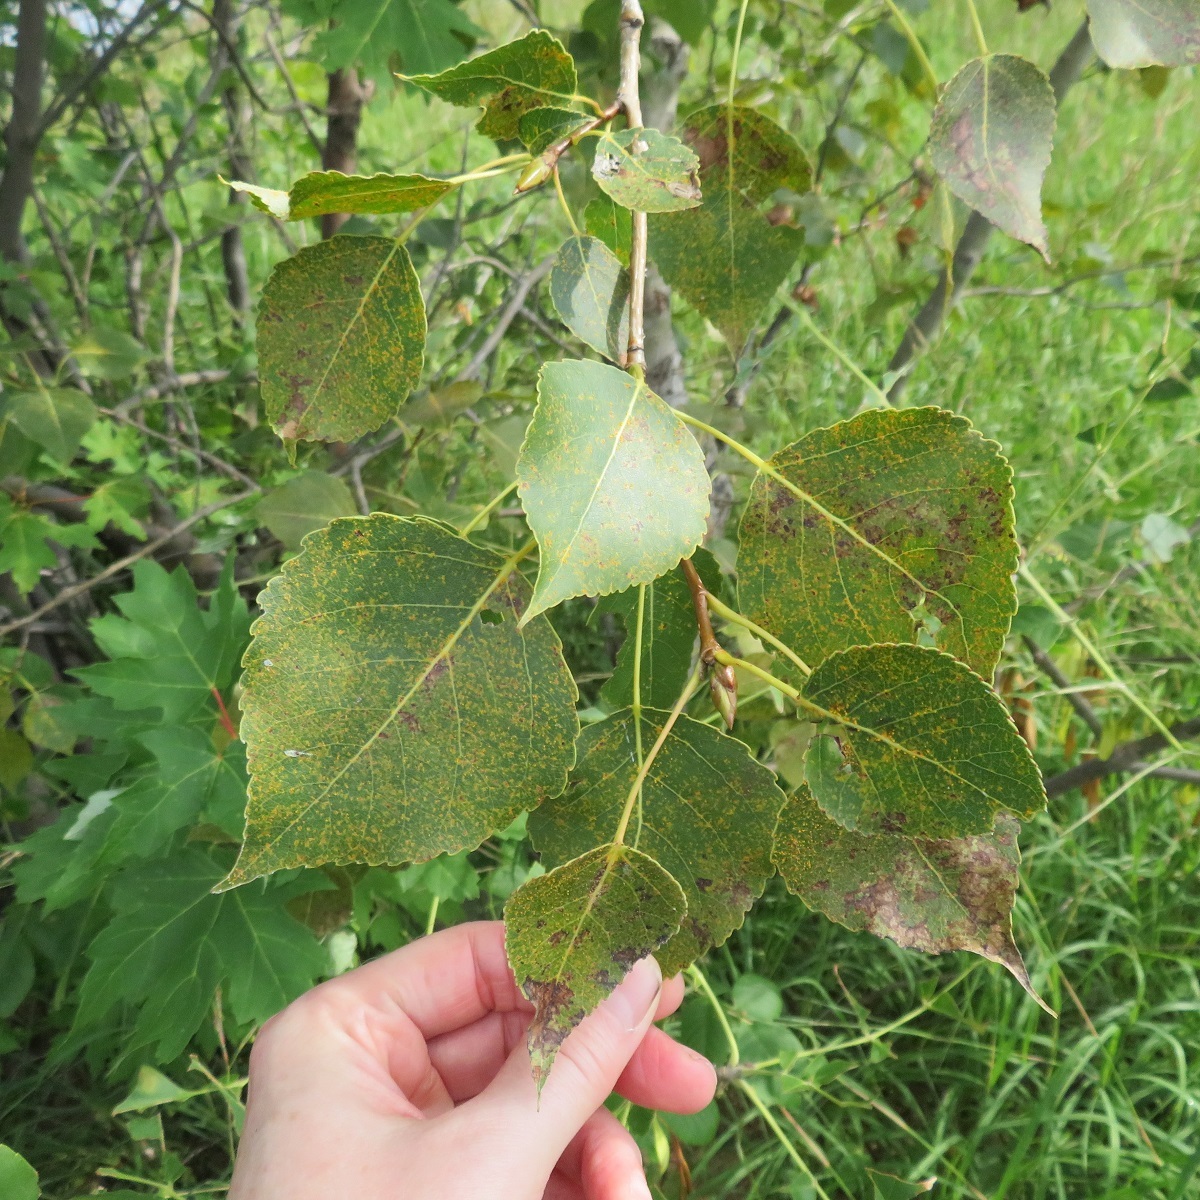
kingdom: Plantae
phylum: Tracheophyta
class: Magnoliopsida
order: Malpighiales
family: Salicaceae
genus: Populus
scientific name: Populus tremuloides
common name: Quaking aspen
